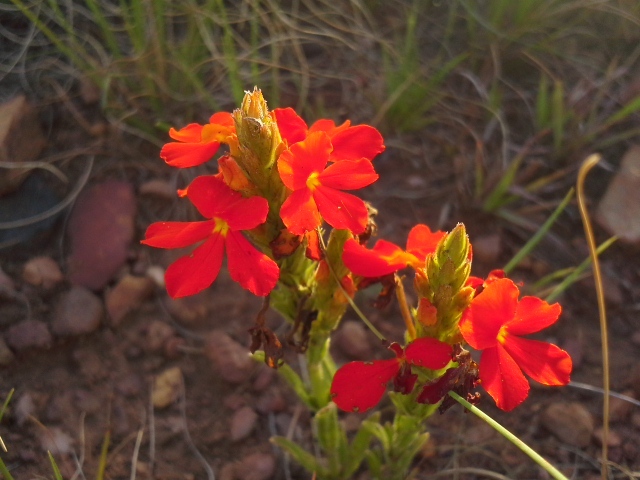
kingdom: Plantae
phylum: Tracheophyta
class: Magnoliopsida
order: Lamiales
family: Orobanchaceae
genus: Striga
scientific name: Striga elegans
